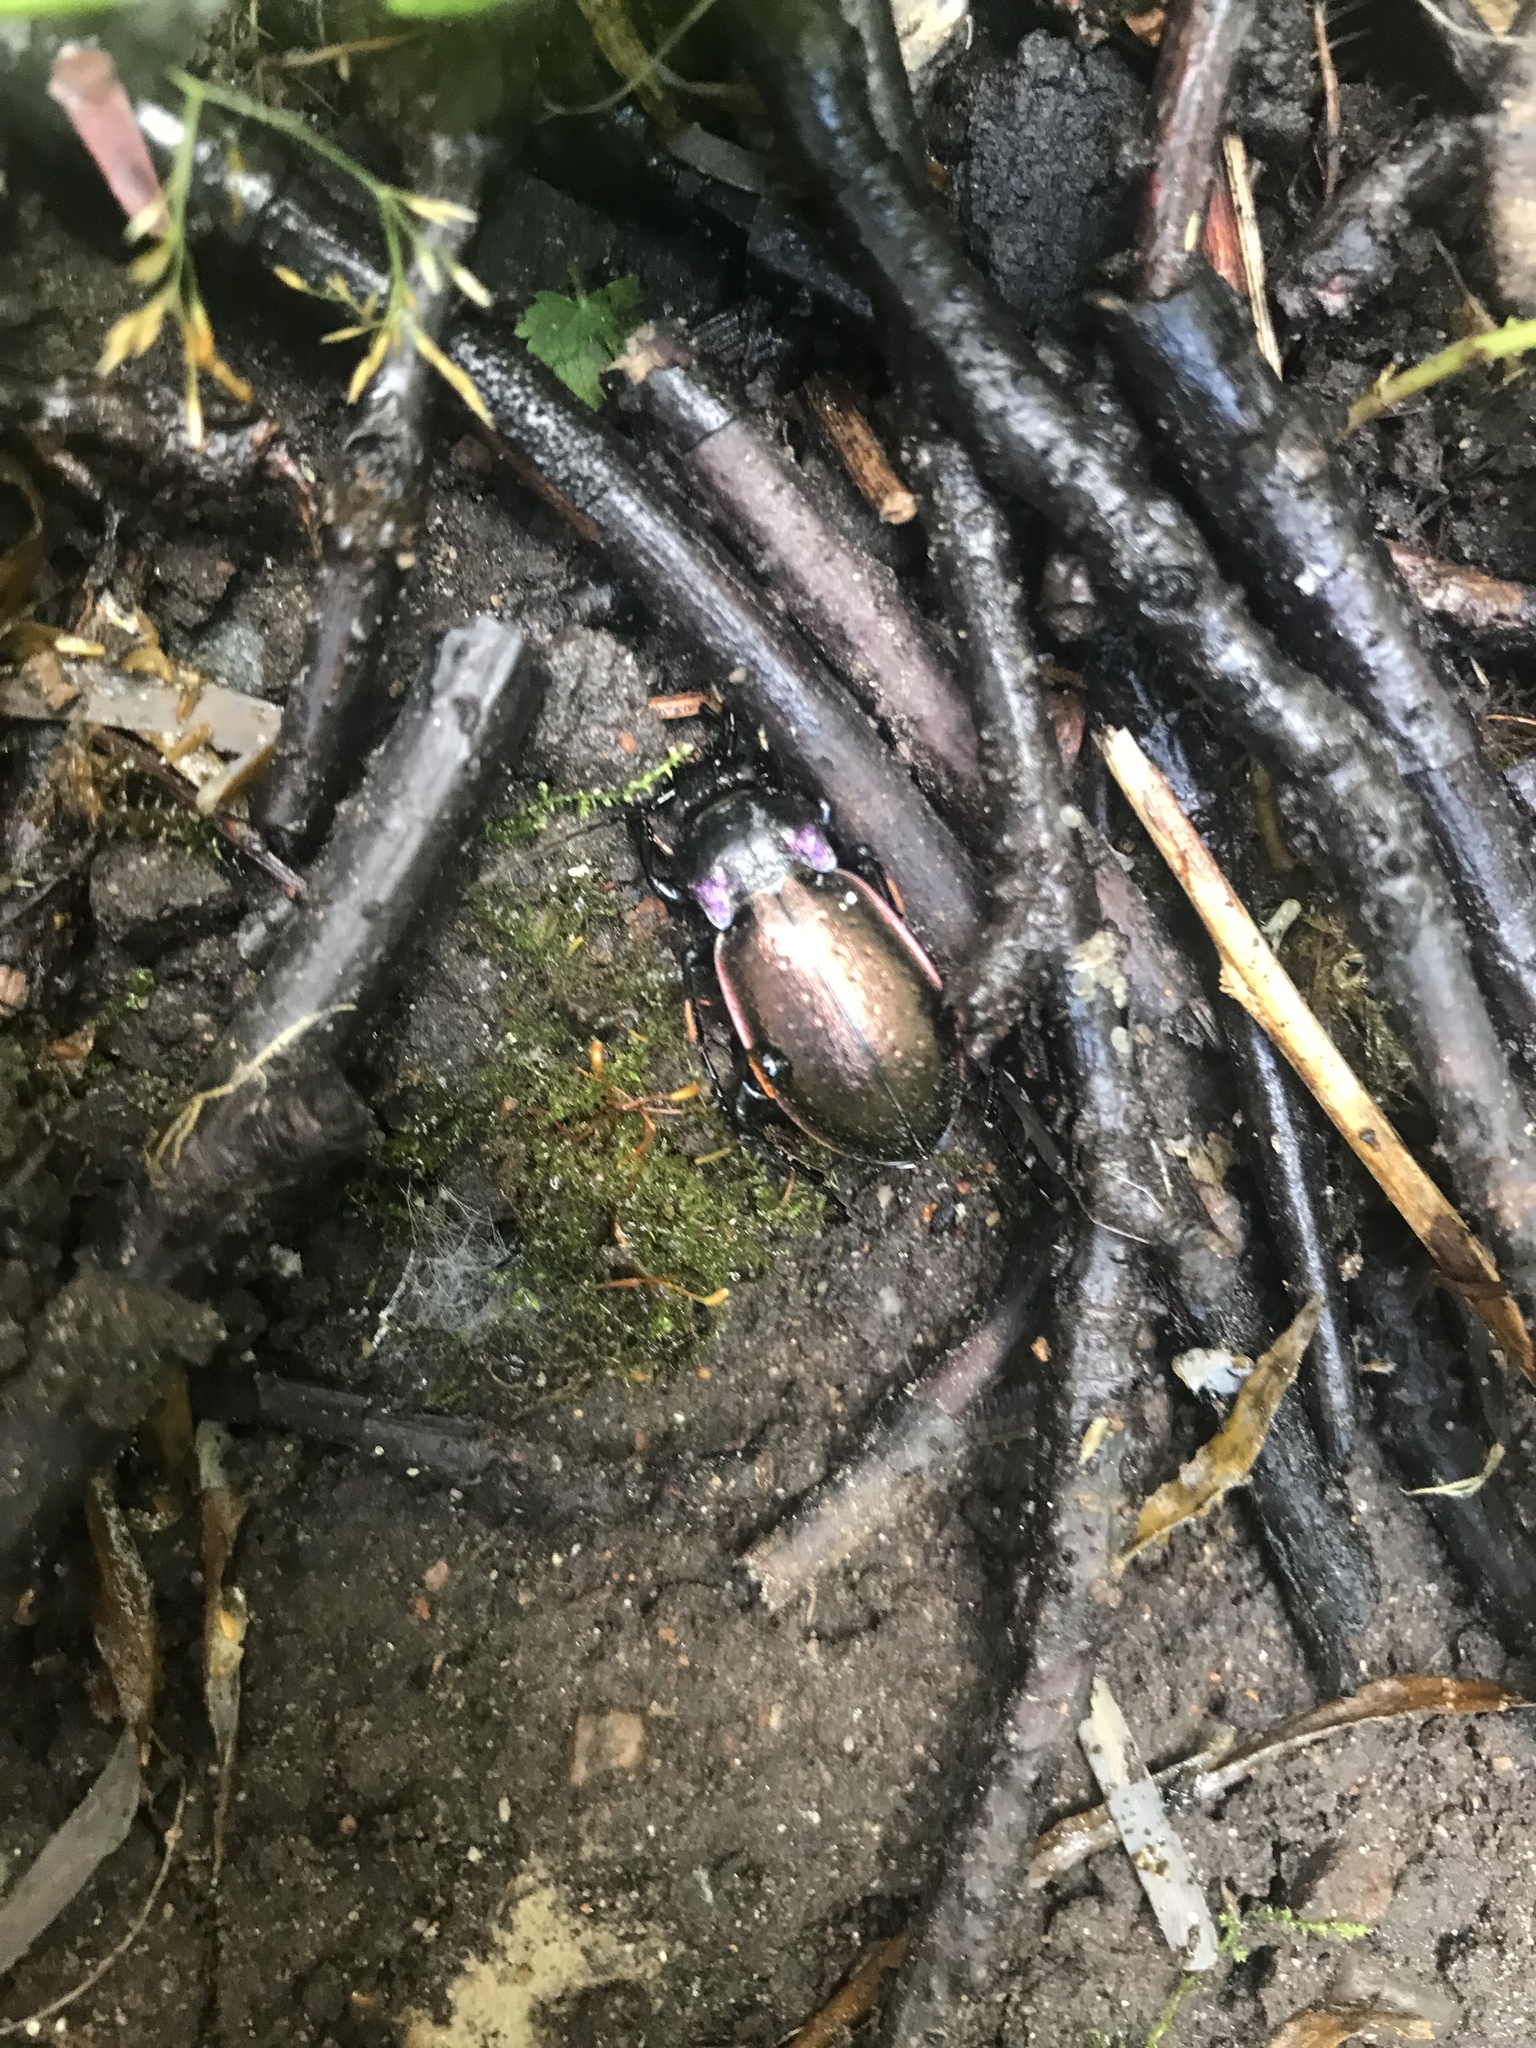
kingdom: Animalia
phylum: Arthropoda
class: Insecta
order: Coleoptera
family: Carabidae
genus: Carabus
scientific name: Carabus nemoralis
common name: European ground beetle
